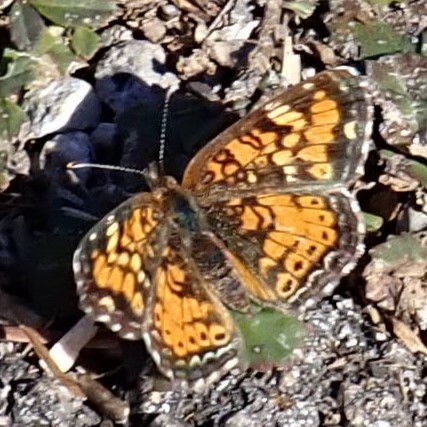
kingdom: Animalia
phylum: Arthropoda
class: Insecta
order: Lepidoptera
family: Nymphalidae
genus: Phyciodes
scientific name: Phyciodes phaon
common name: Phaon crescent
